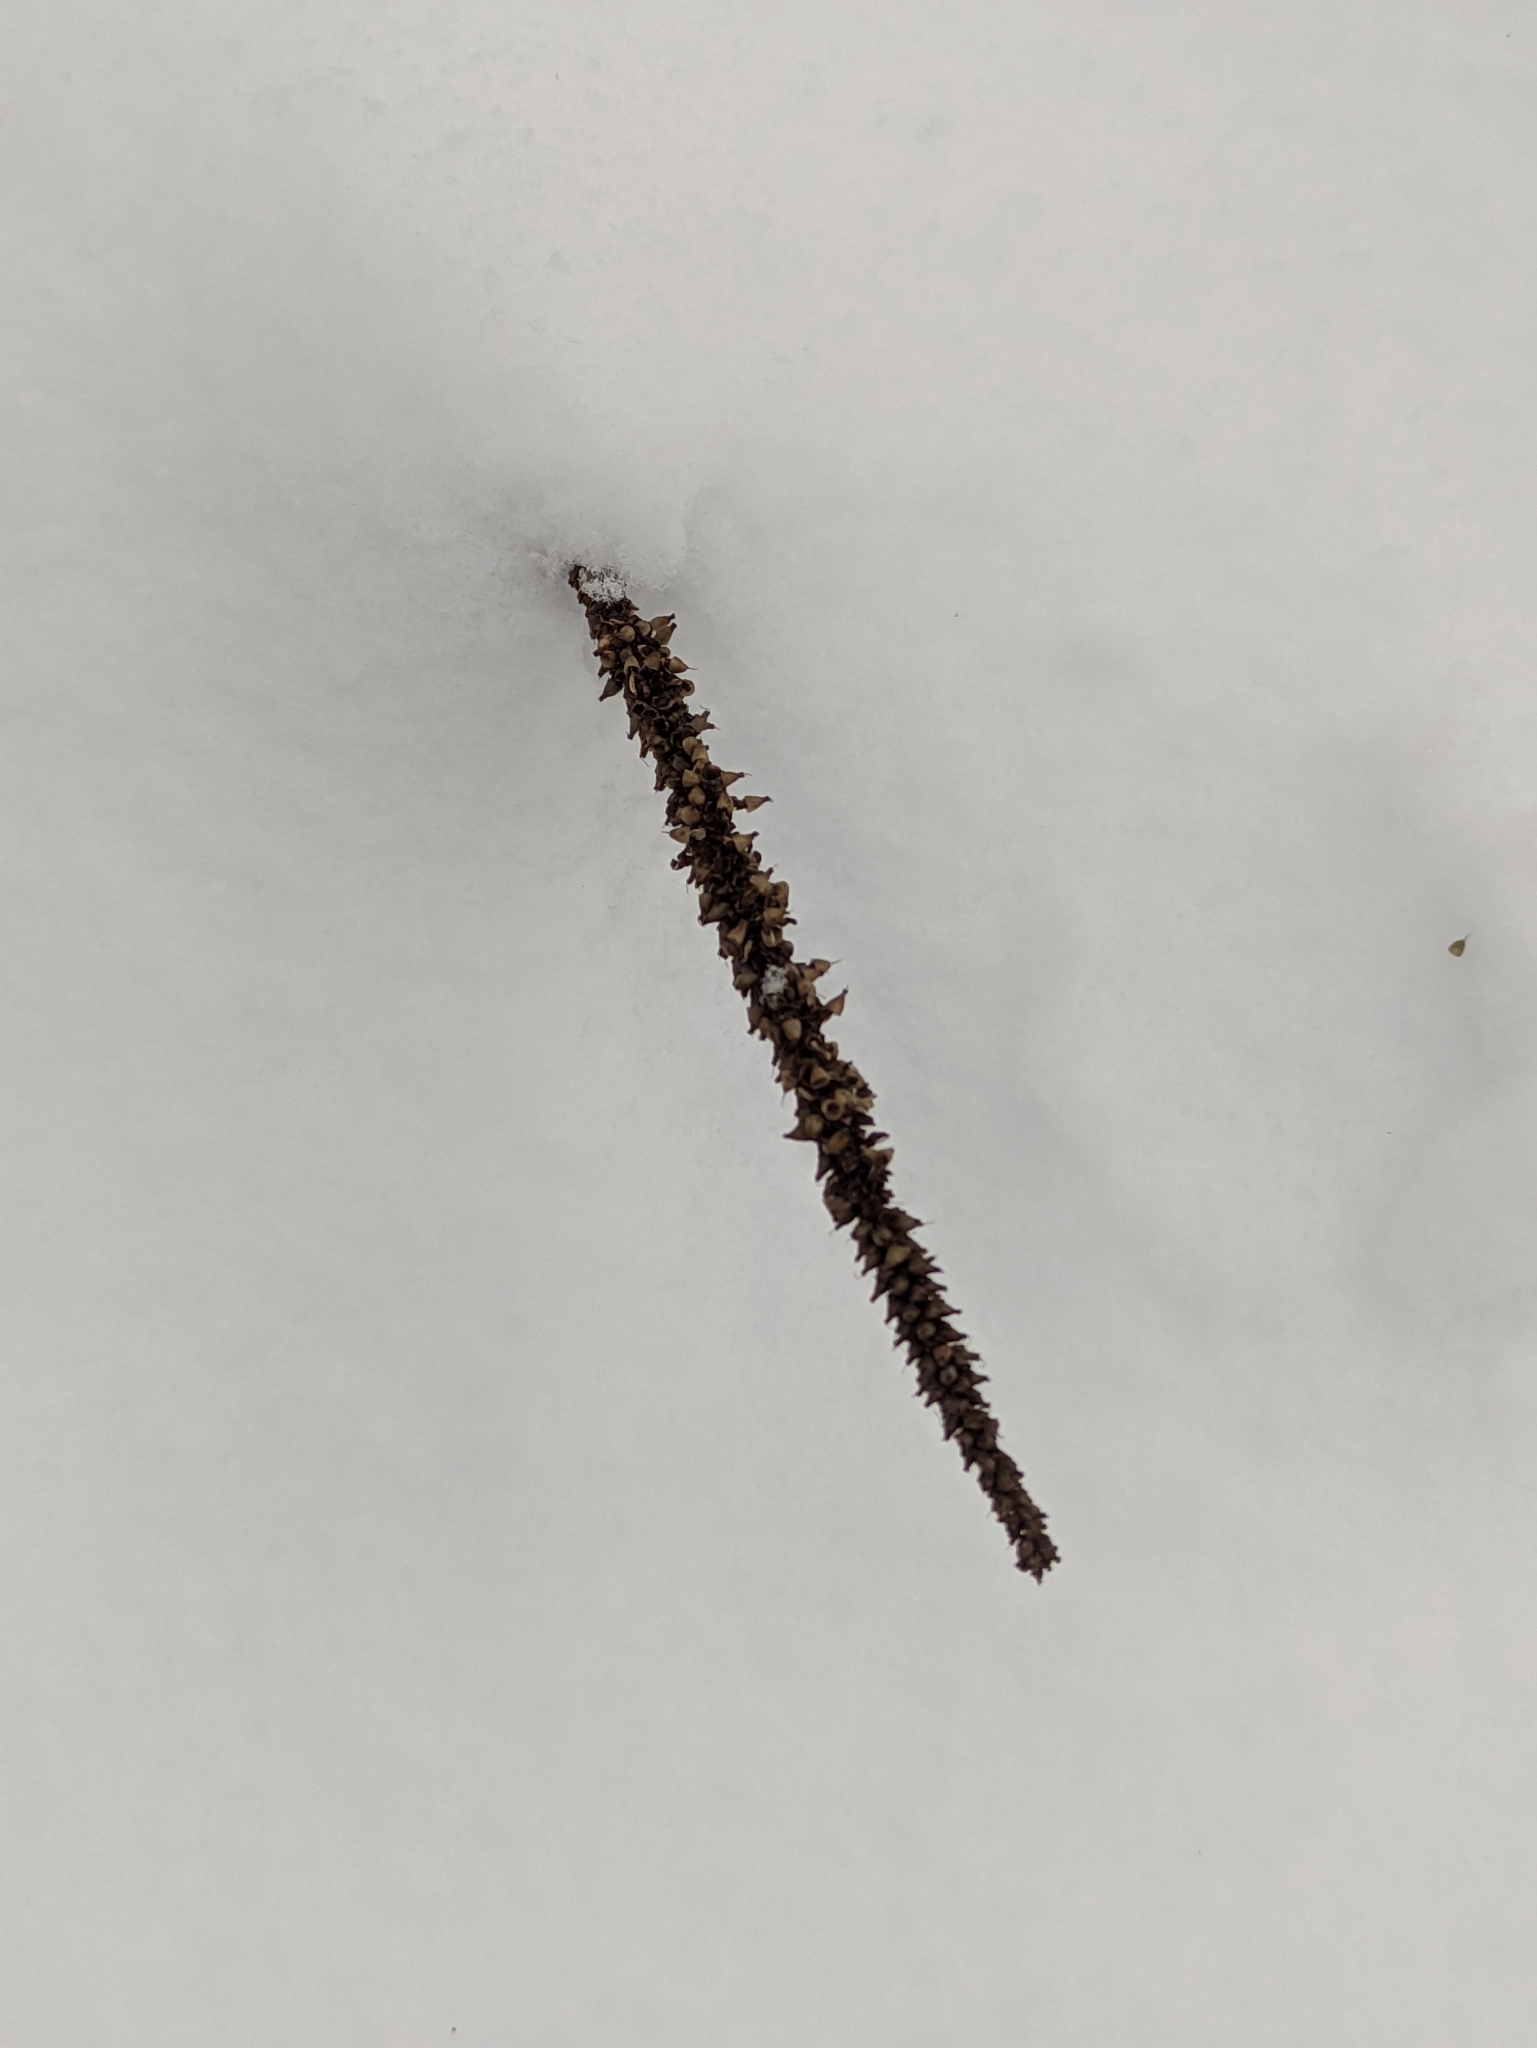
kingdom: Plantae
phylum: Tracheophyta
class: Magnoliopsida
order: Lamiales
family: Plantaginaceae
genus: Plantago
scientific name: Plantago major
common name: Common plantain
